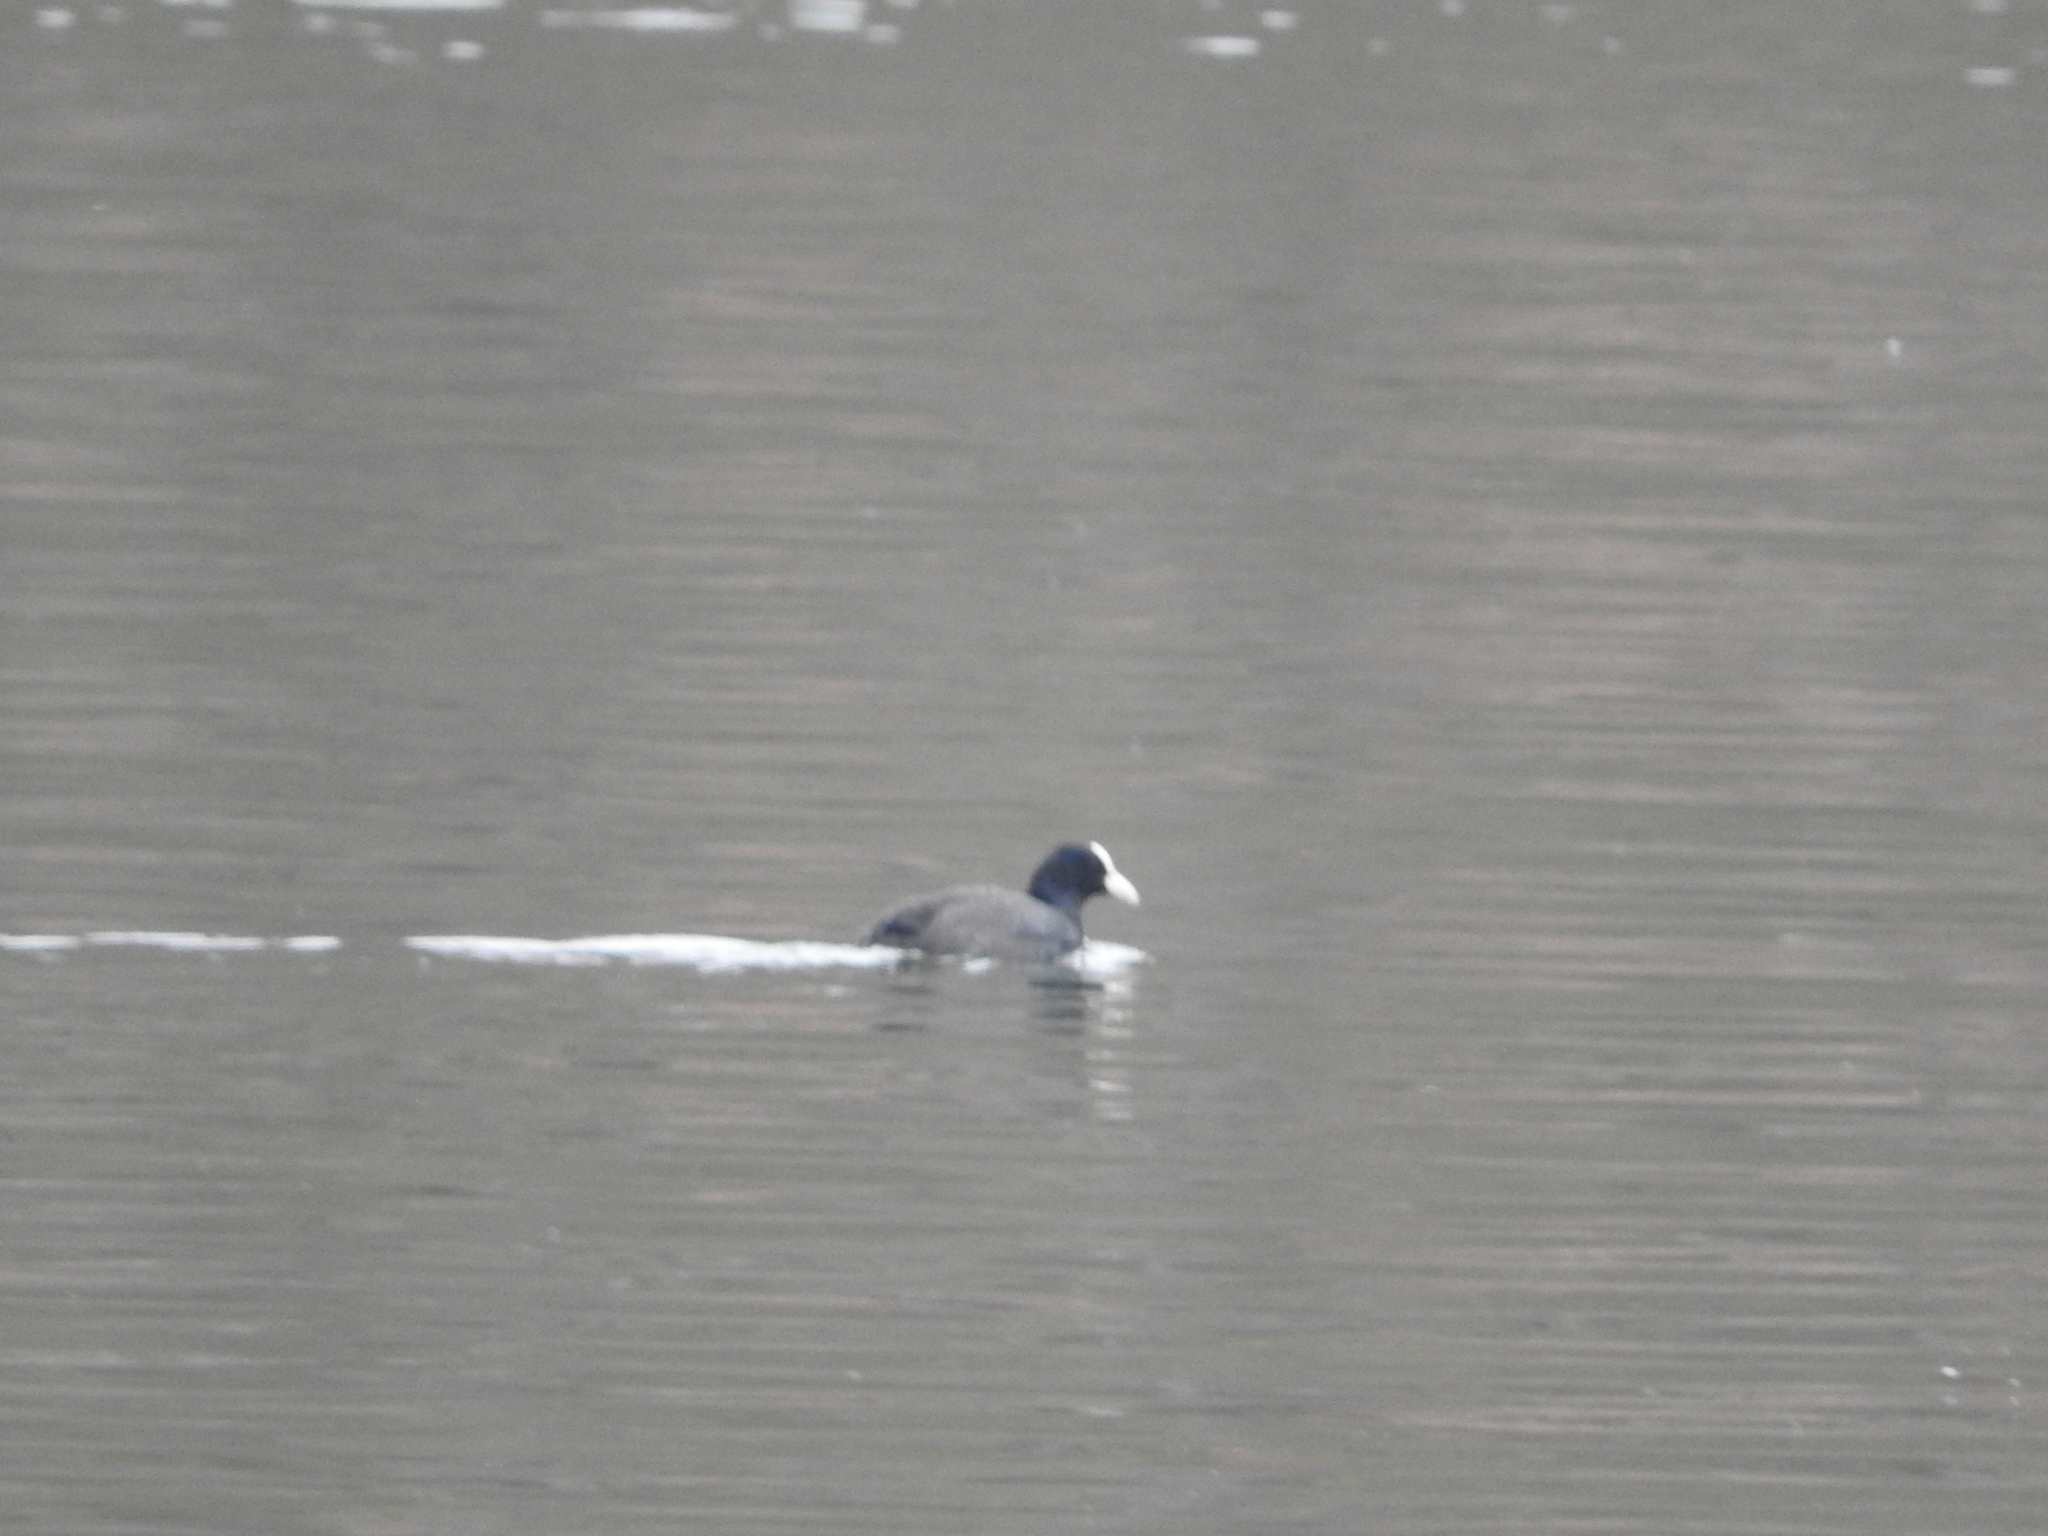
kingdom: Animalia
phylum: Chordata
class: Aves
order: Gruiformes
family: Rallidae
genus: Fulica
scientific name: Fulica atra
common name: Eurasian coot
